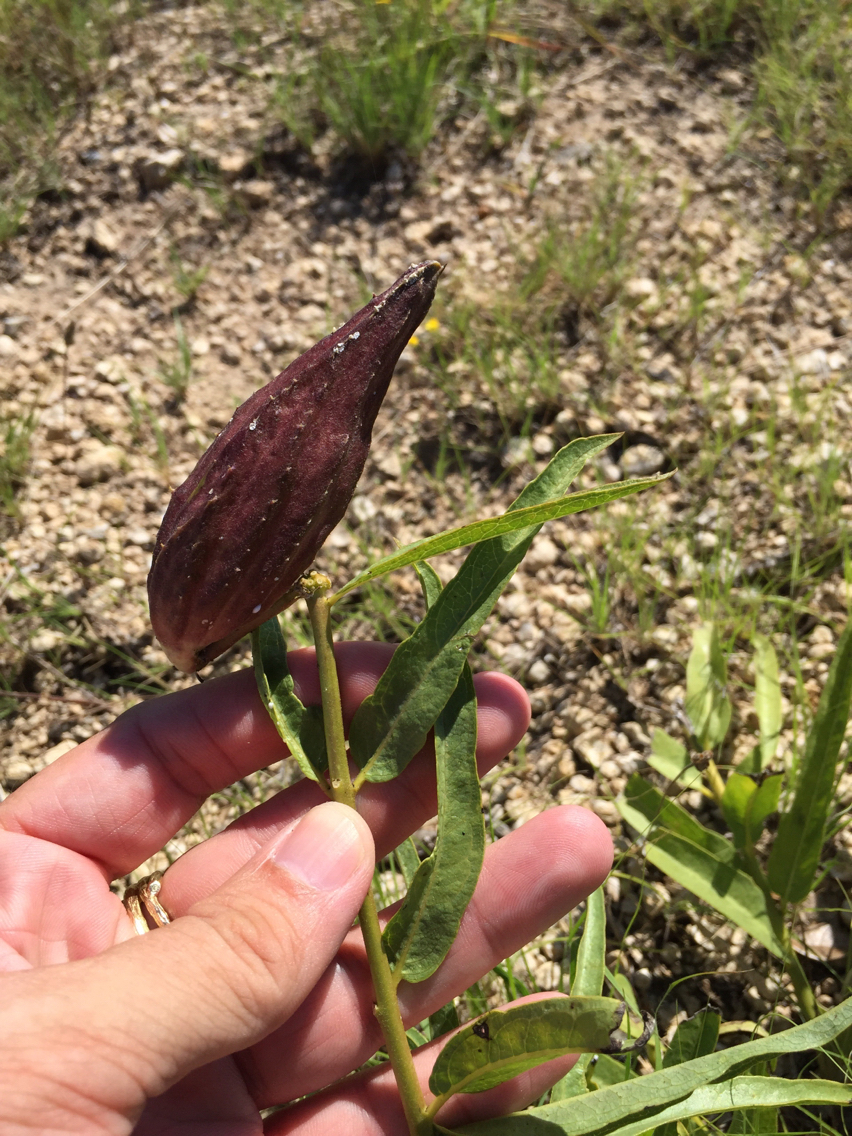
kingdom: Plantae
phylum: Tracheophyta
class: Magnoliopsida
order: Gentianales
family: Apocynaceae
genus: Asclepias
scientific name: Asclepias asperula
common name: Antelope horns
